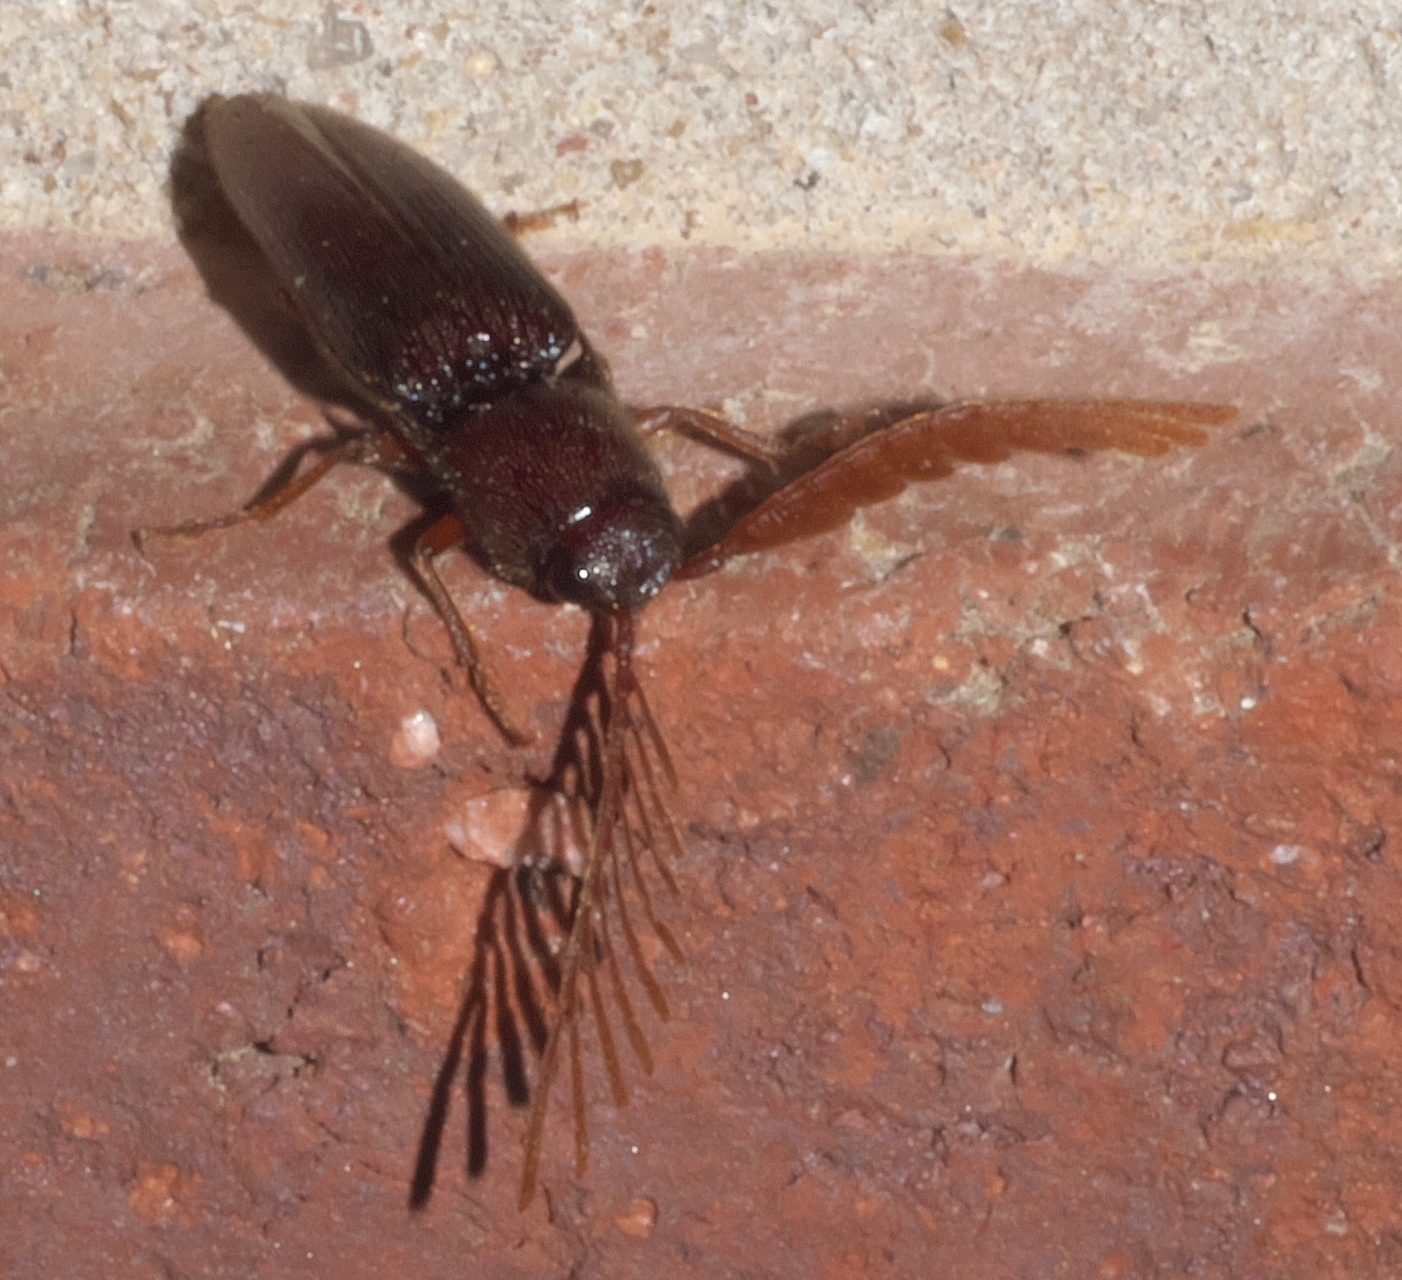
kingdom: Animalia
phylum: Arthropoda
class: Insecta
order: Coleoptera
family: Elateridae
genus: Dicrepidius
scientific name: Dicrepidius palmatus
